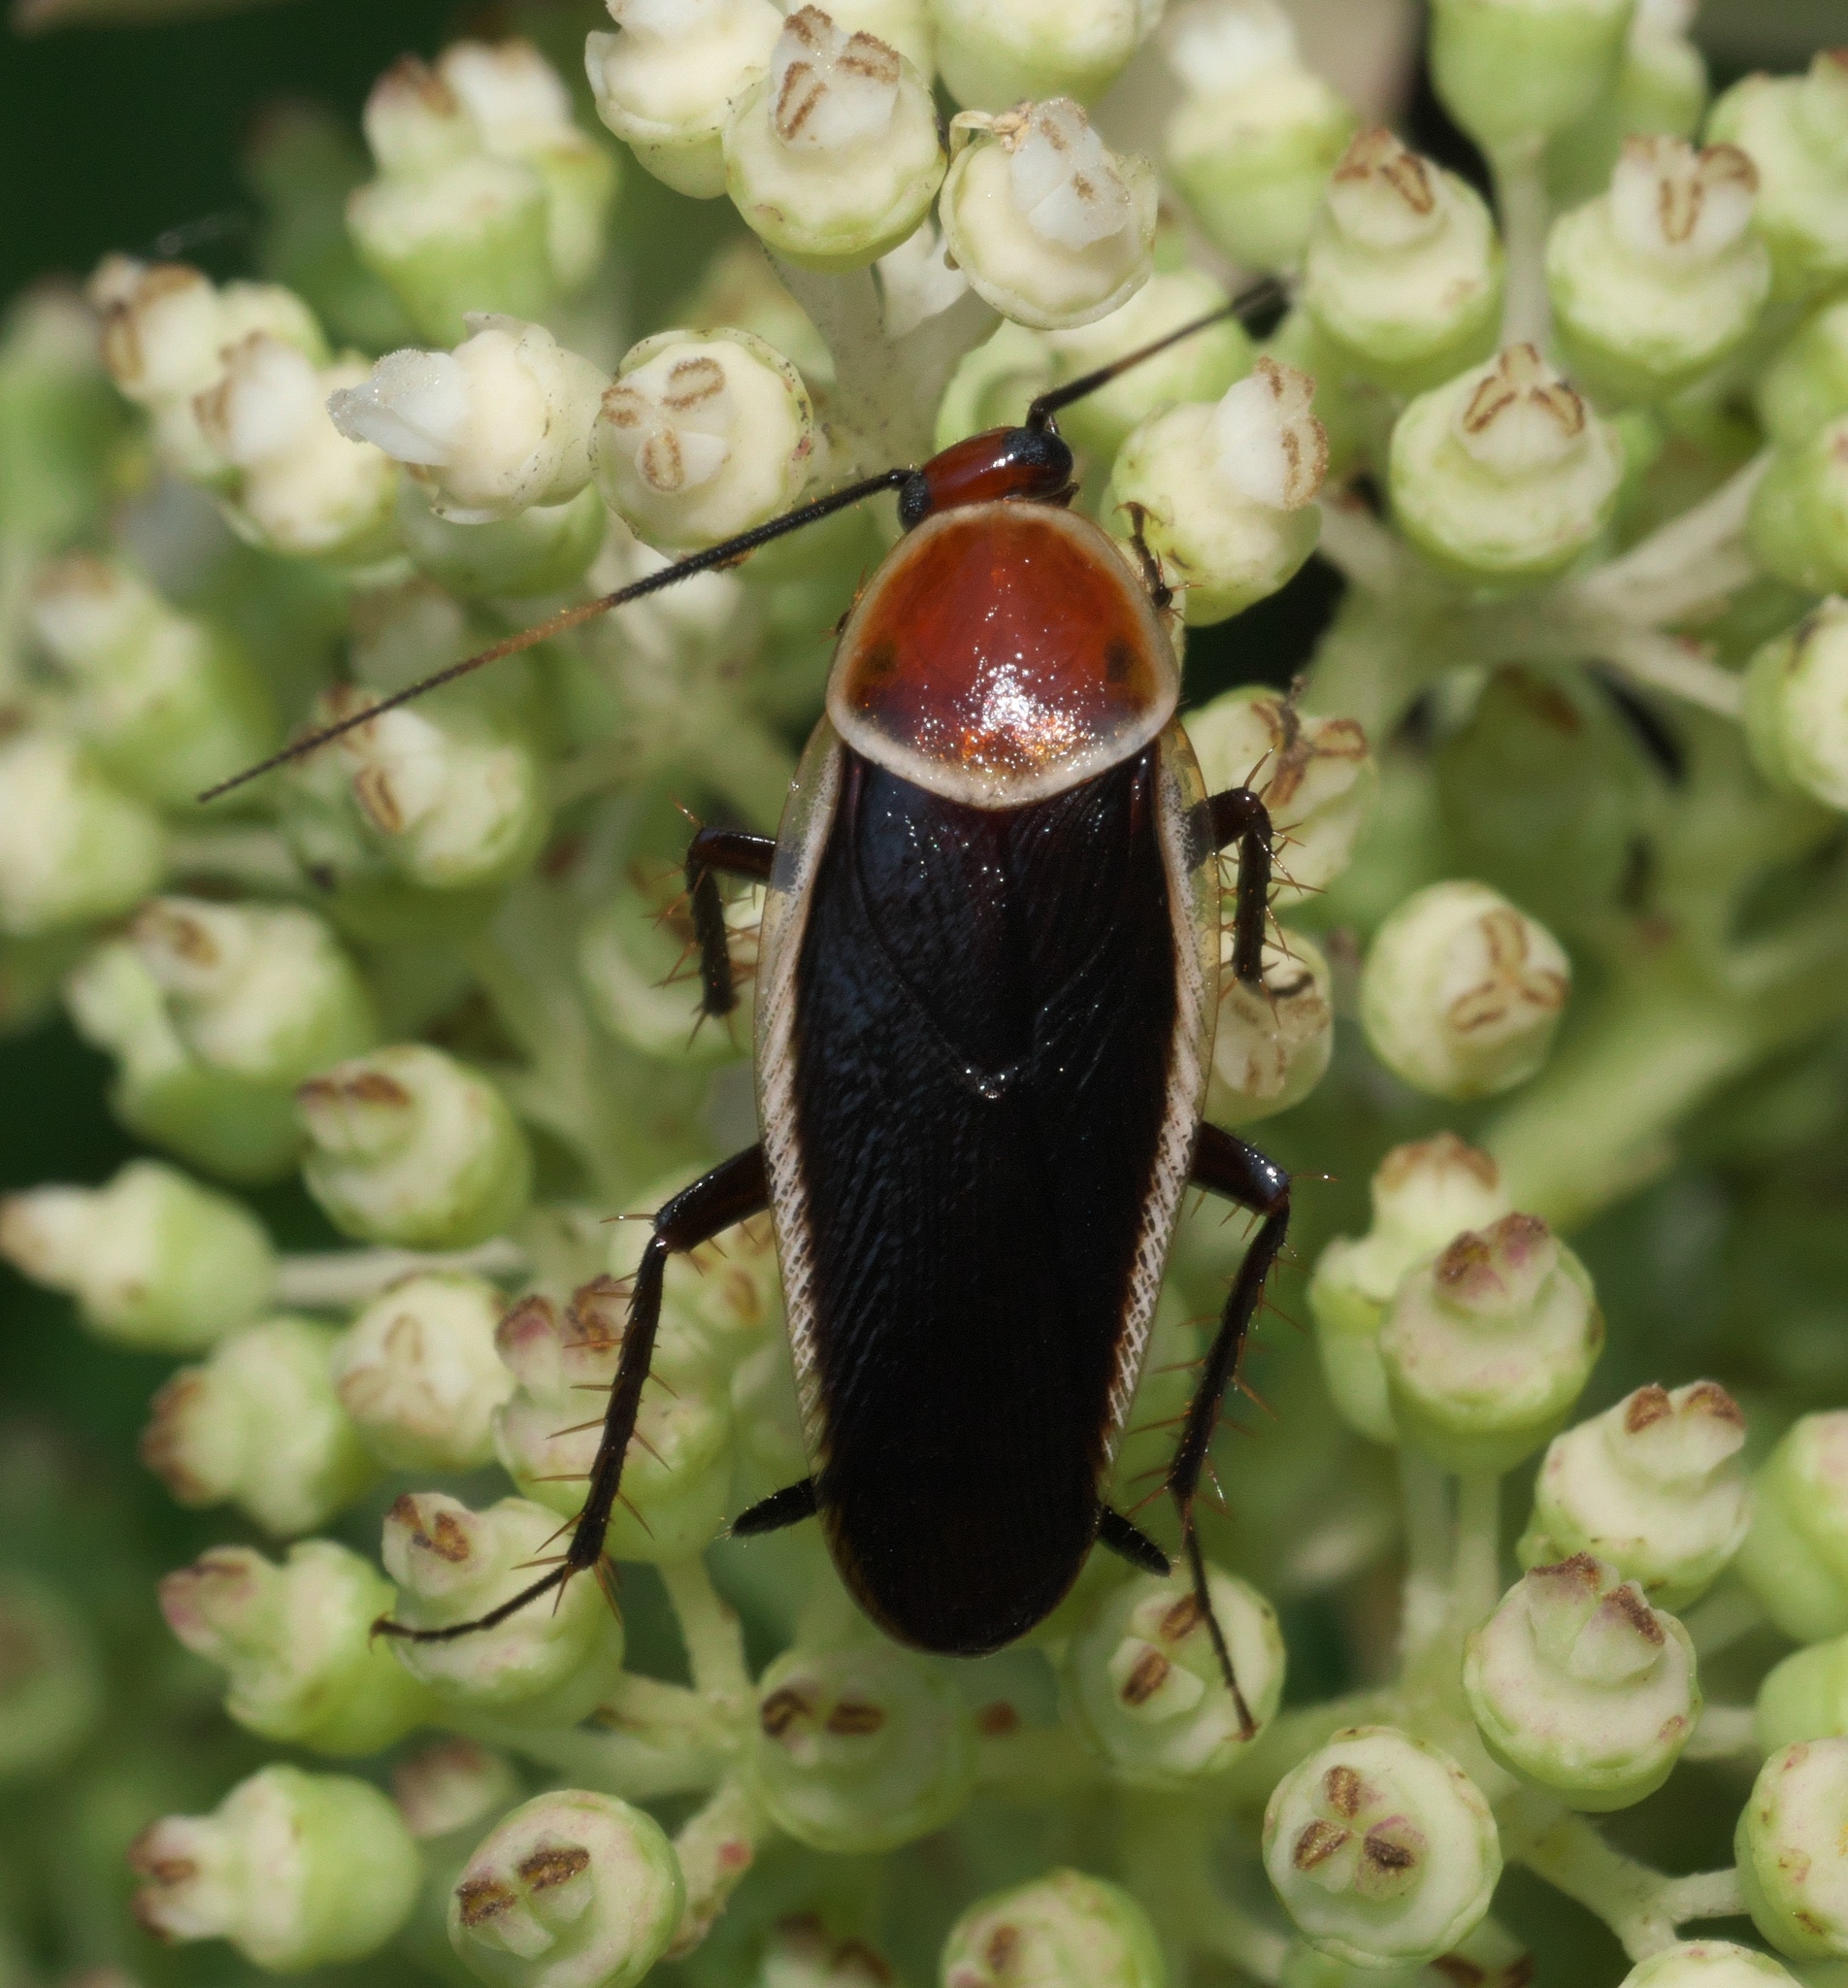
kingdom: Animalia
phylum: Arthropoda
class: Insecta
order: Blattodea
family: Ectobiidae
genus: Pseudomops
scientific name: Pseudomops septentrionalis
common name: Pale-bordered field cockroach
